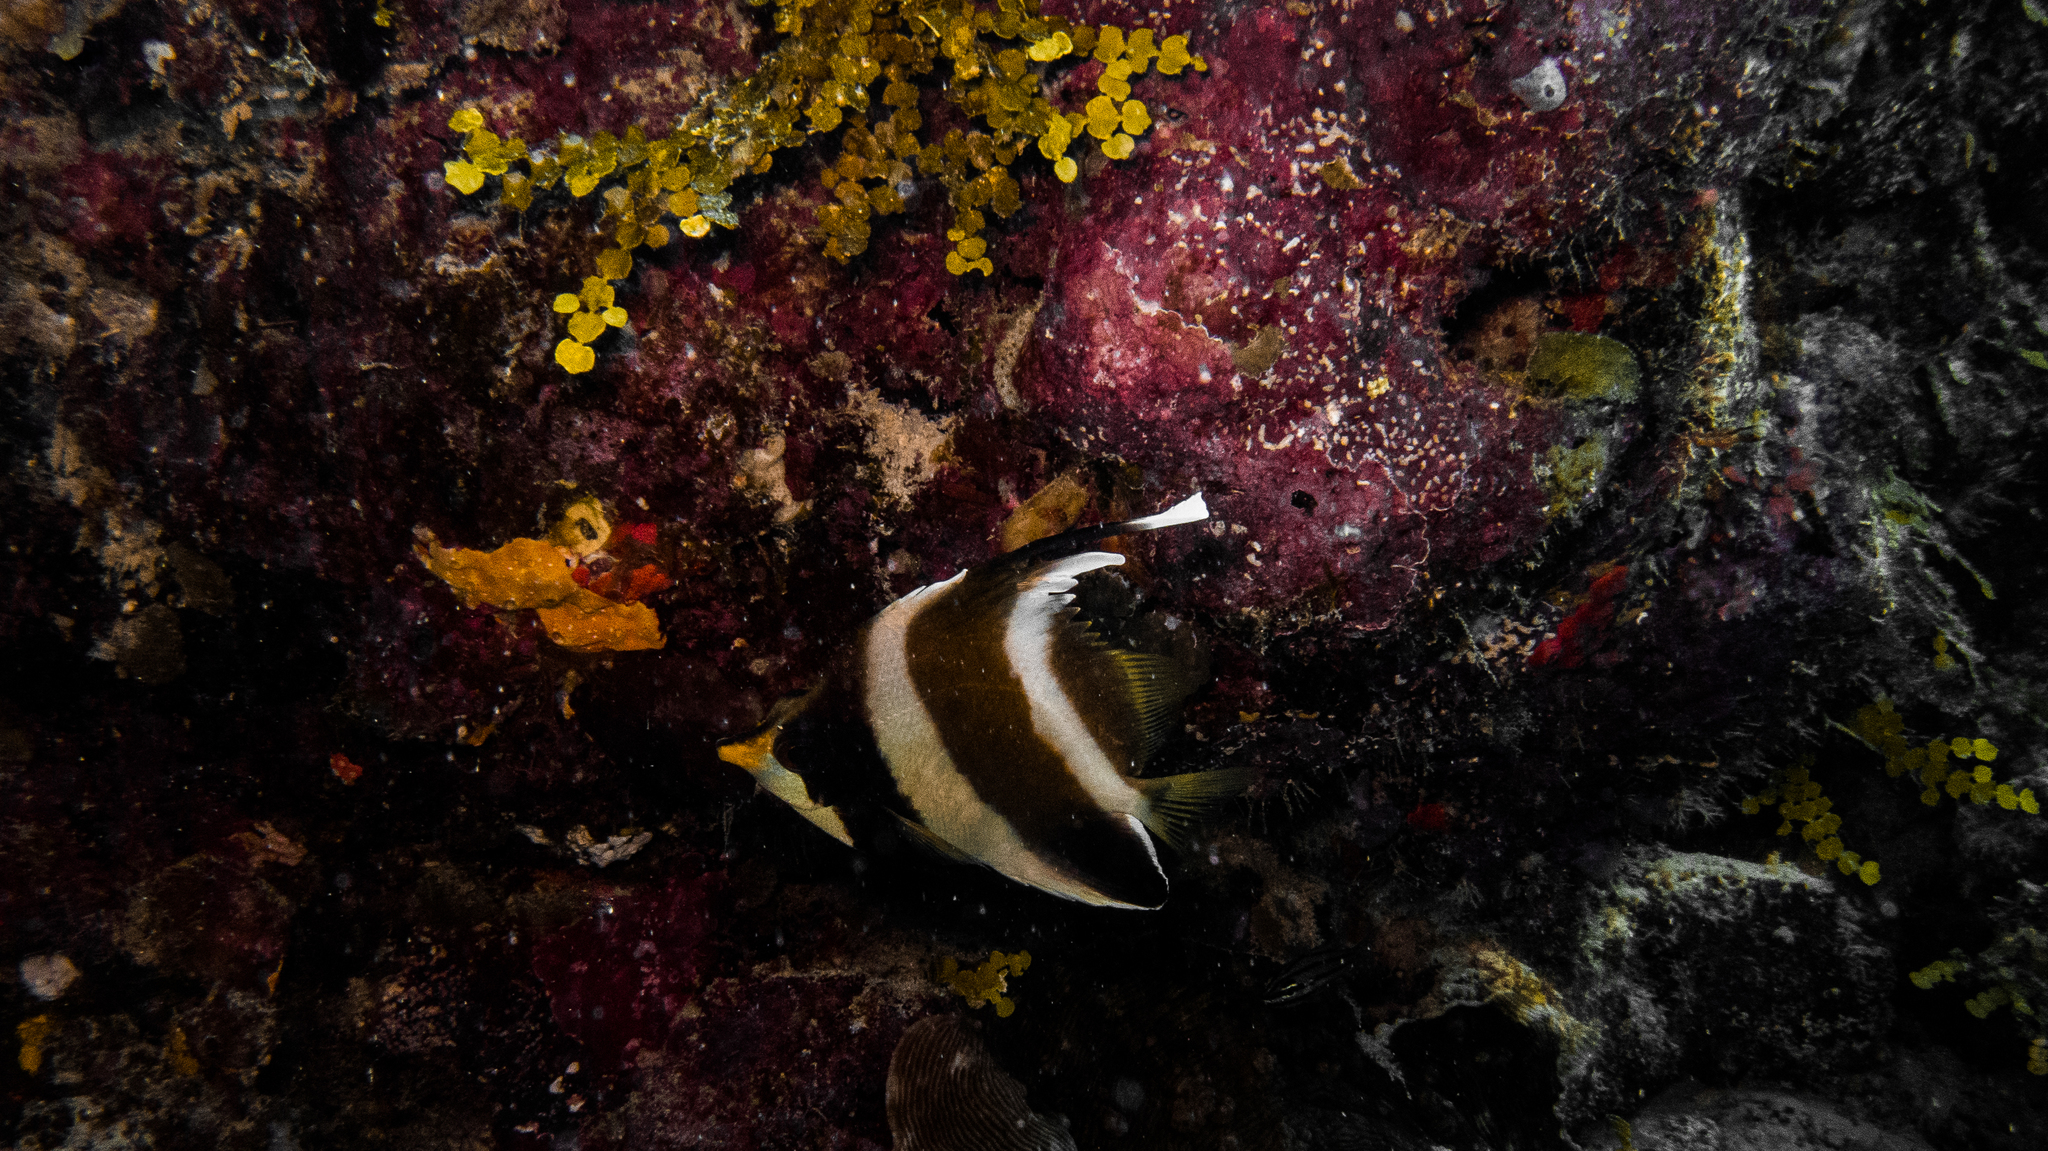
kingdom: Animalia
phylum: Chordata
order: Perciformes
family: Chaetodontidae
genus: Heniochus
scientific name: Heniochus chrysostomus
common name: Horned bannerfish
